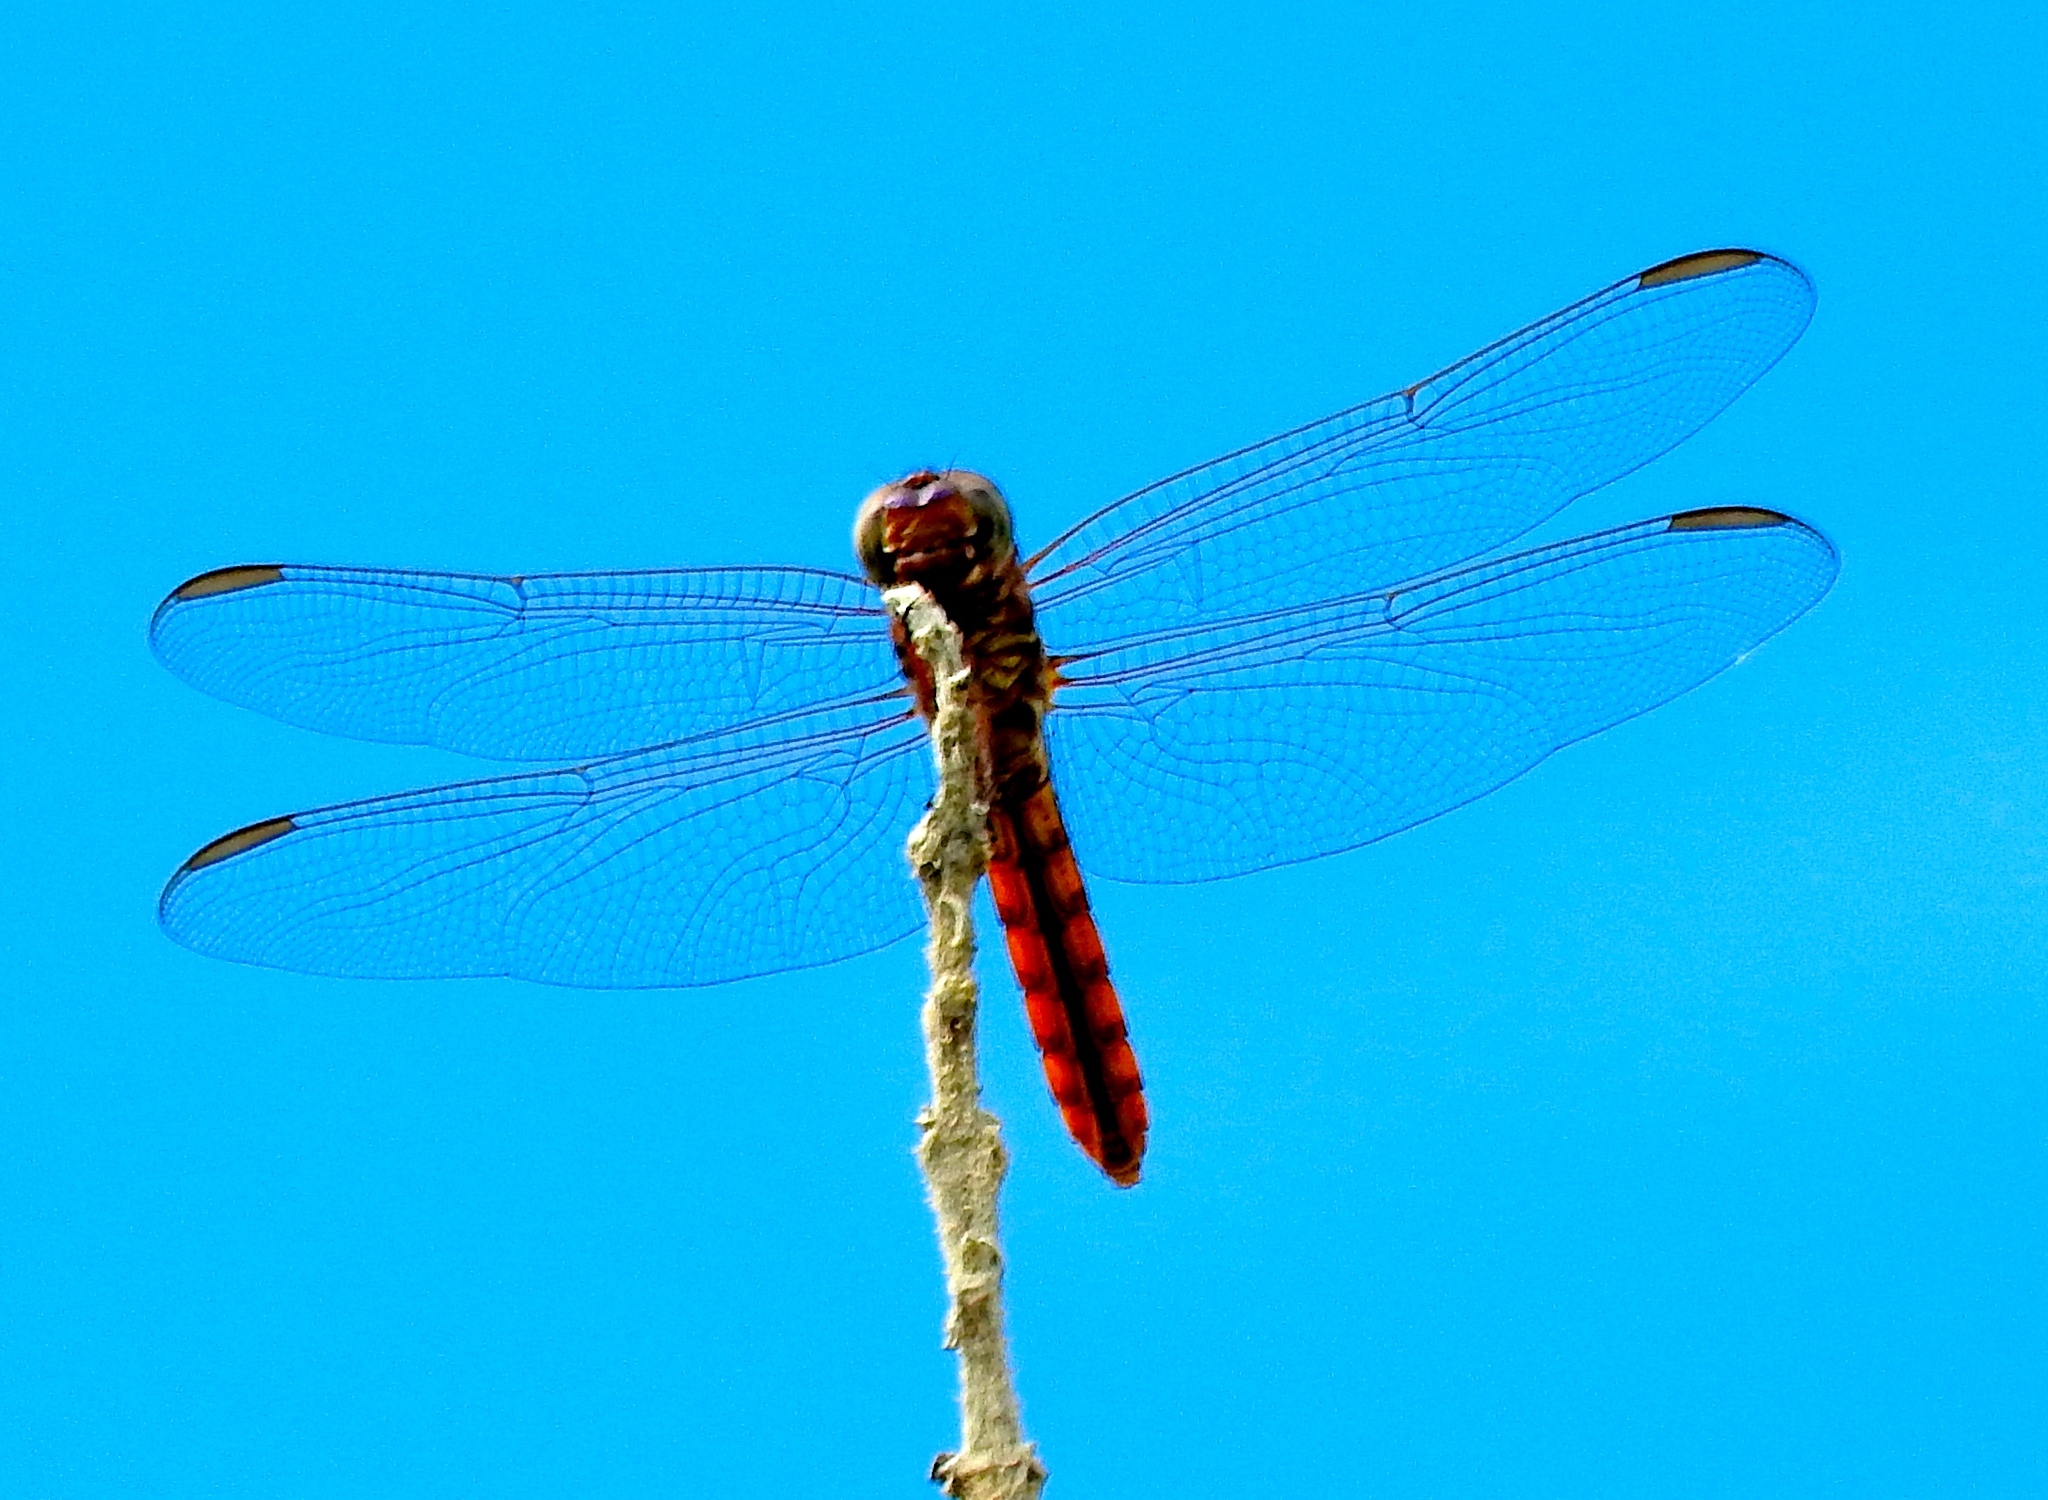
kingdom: Animalia
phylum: Arthropoda
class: Insecta
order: Odonata
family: Libellulidae
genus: Orthemis
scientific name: Orthemis
